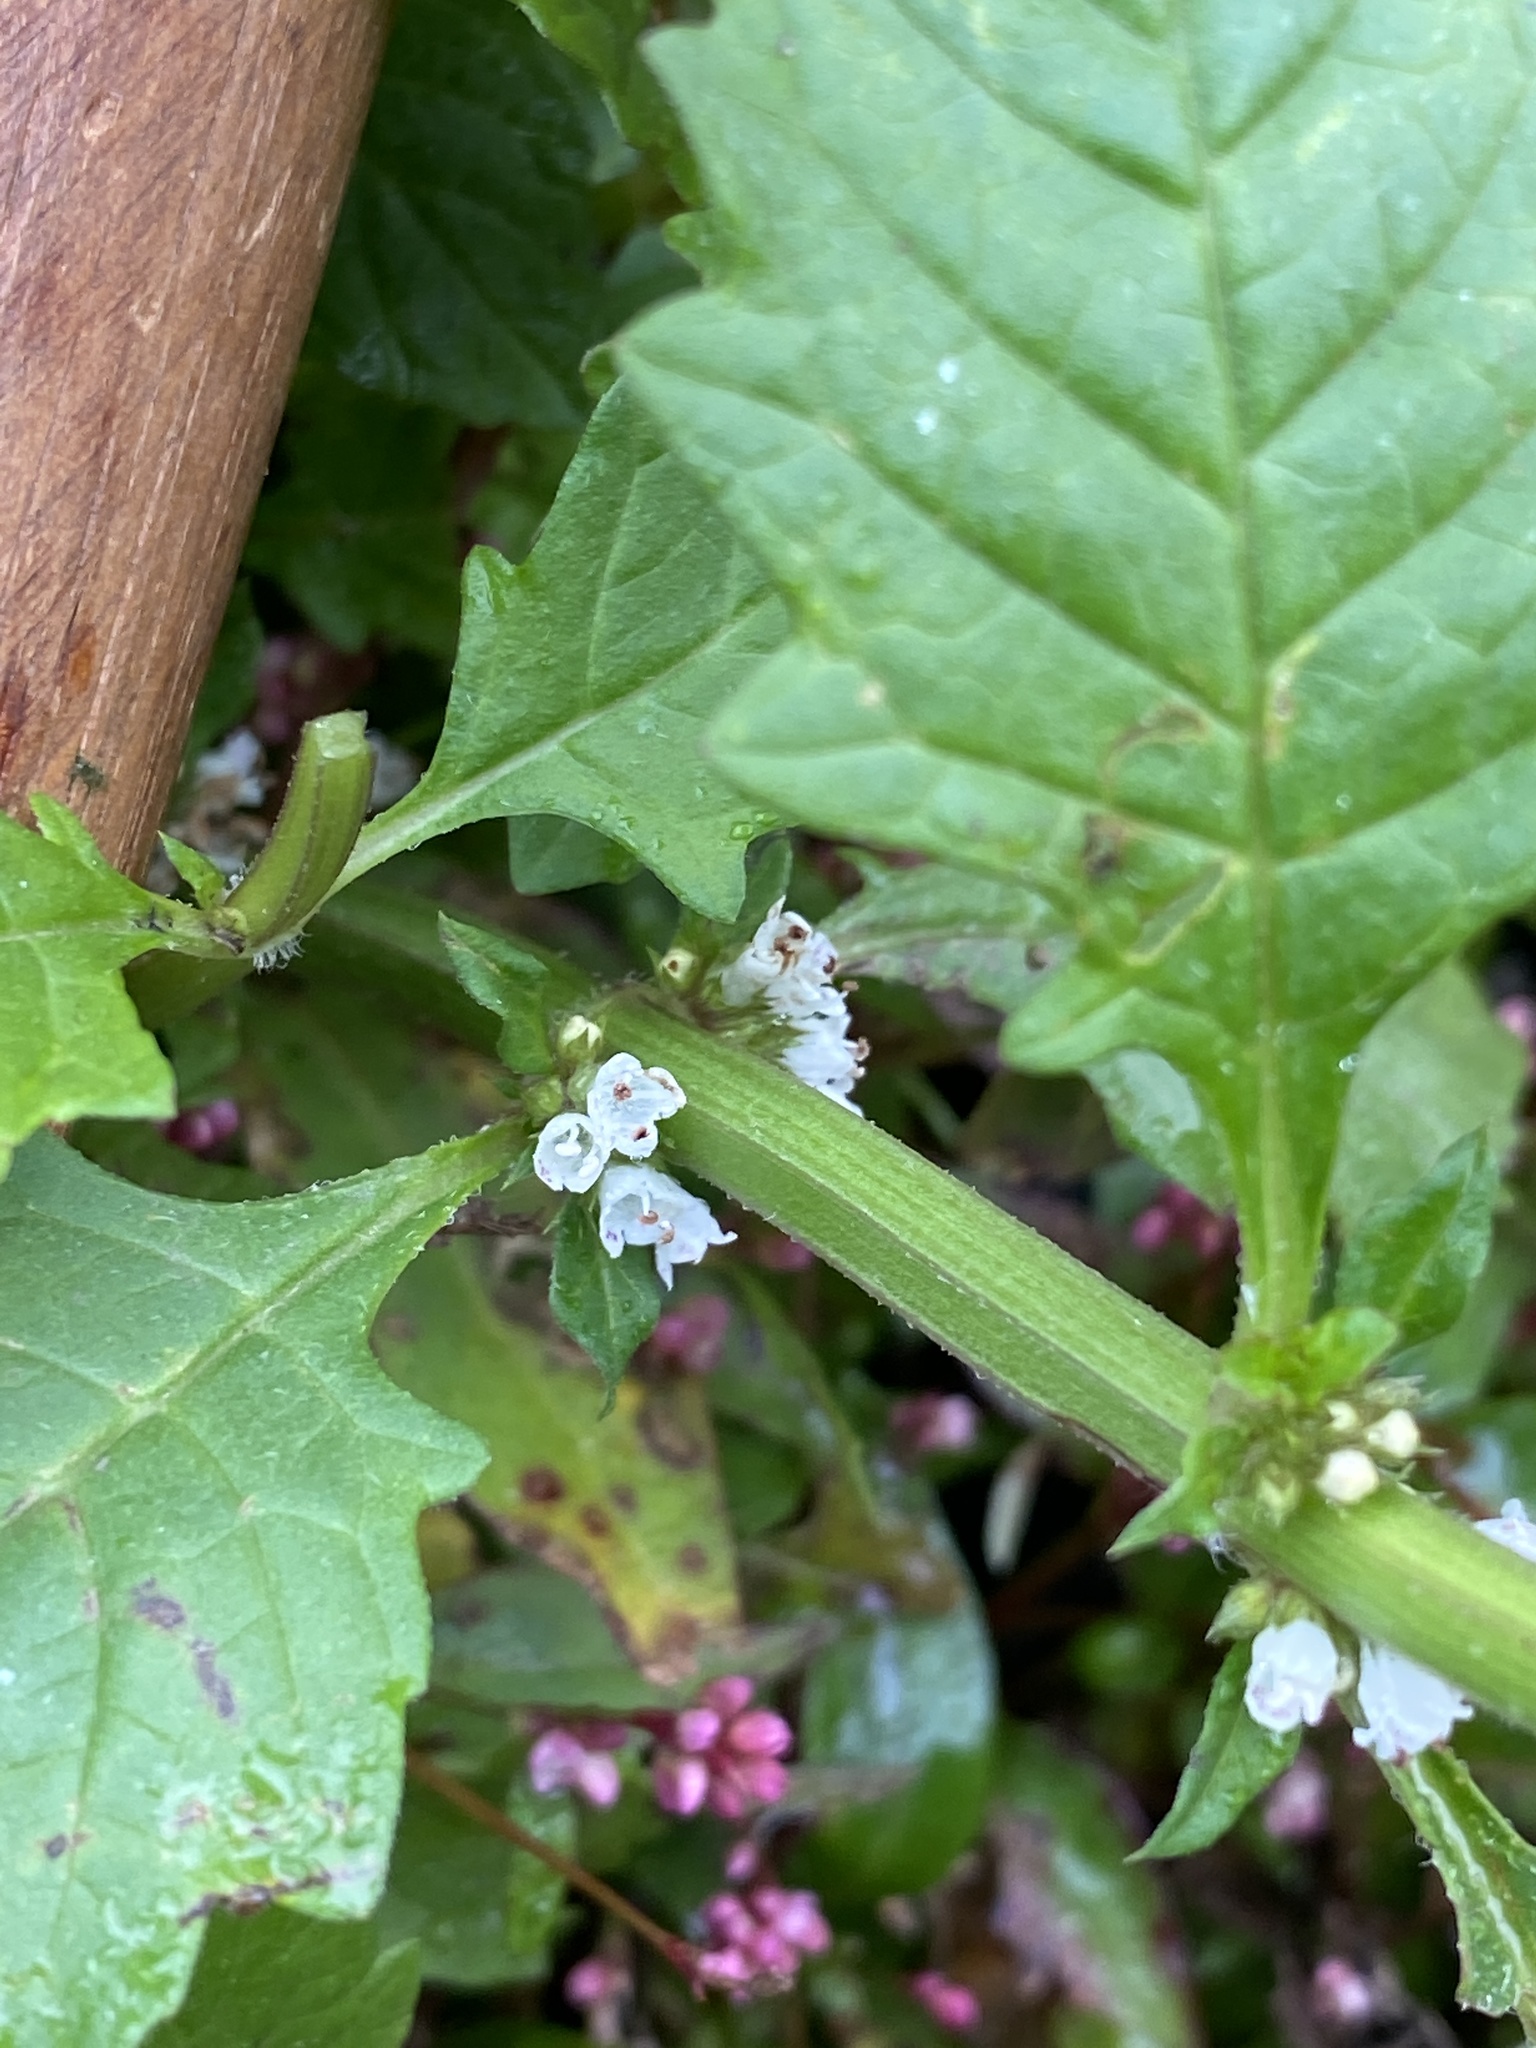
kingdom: Plantae
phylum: Tracheophyta
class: Magnoliopsida
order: Lamiales
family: Lamiaceae
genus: Lycopus
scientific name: Lycopus europaeus
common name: European bugleweed
